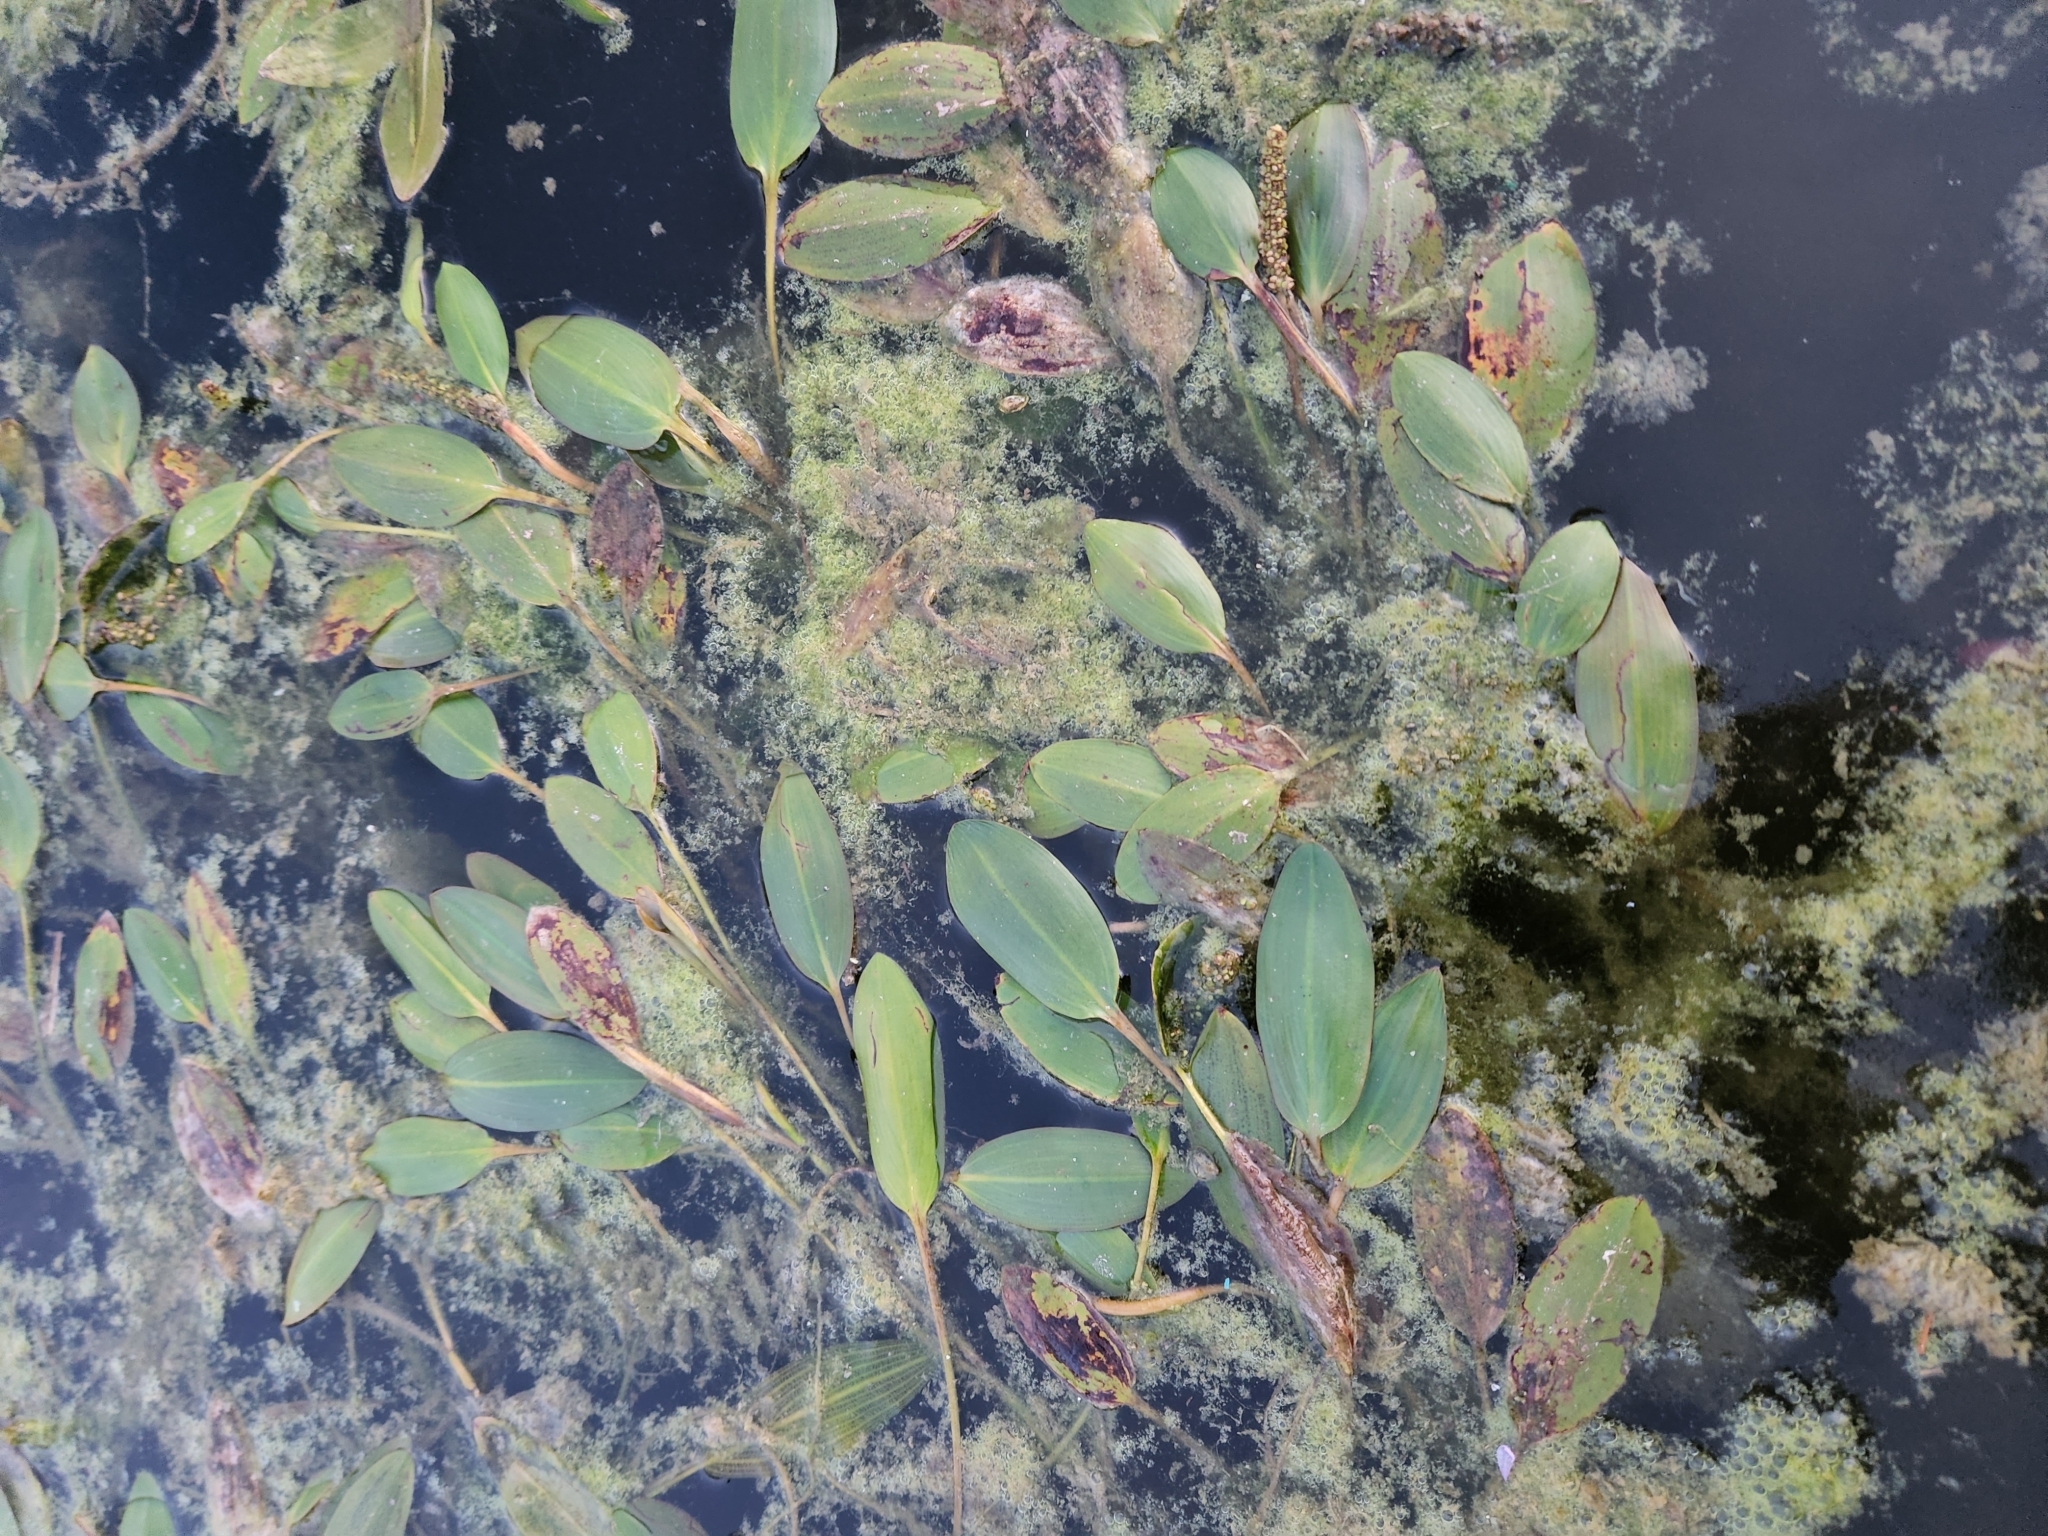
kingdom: Plantae
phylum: Tracheophyta
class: Liliopsida
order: Alismatales
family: Potamogetonaceae
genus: Potamogeton
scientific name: Potamogeton nodosus
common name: Loddon pondweed
